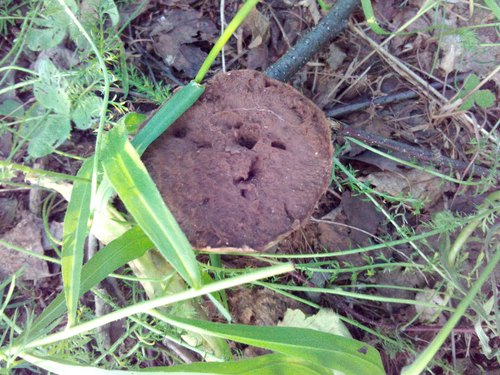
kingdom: Fungi
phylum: Basidiomycota
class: Agaricomycetes
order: Agaricales
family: Lycoperdaceae
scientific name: Lycoperdaceae
